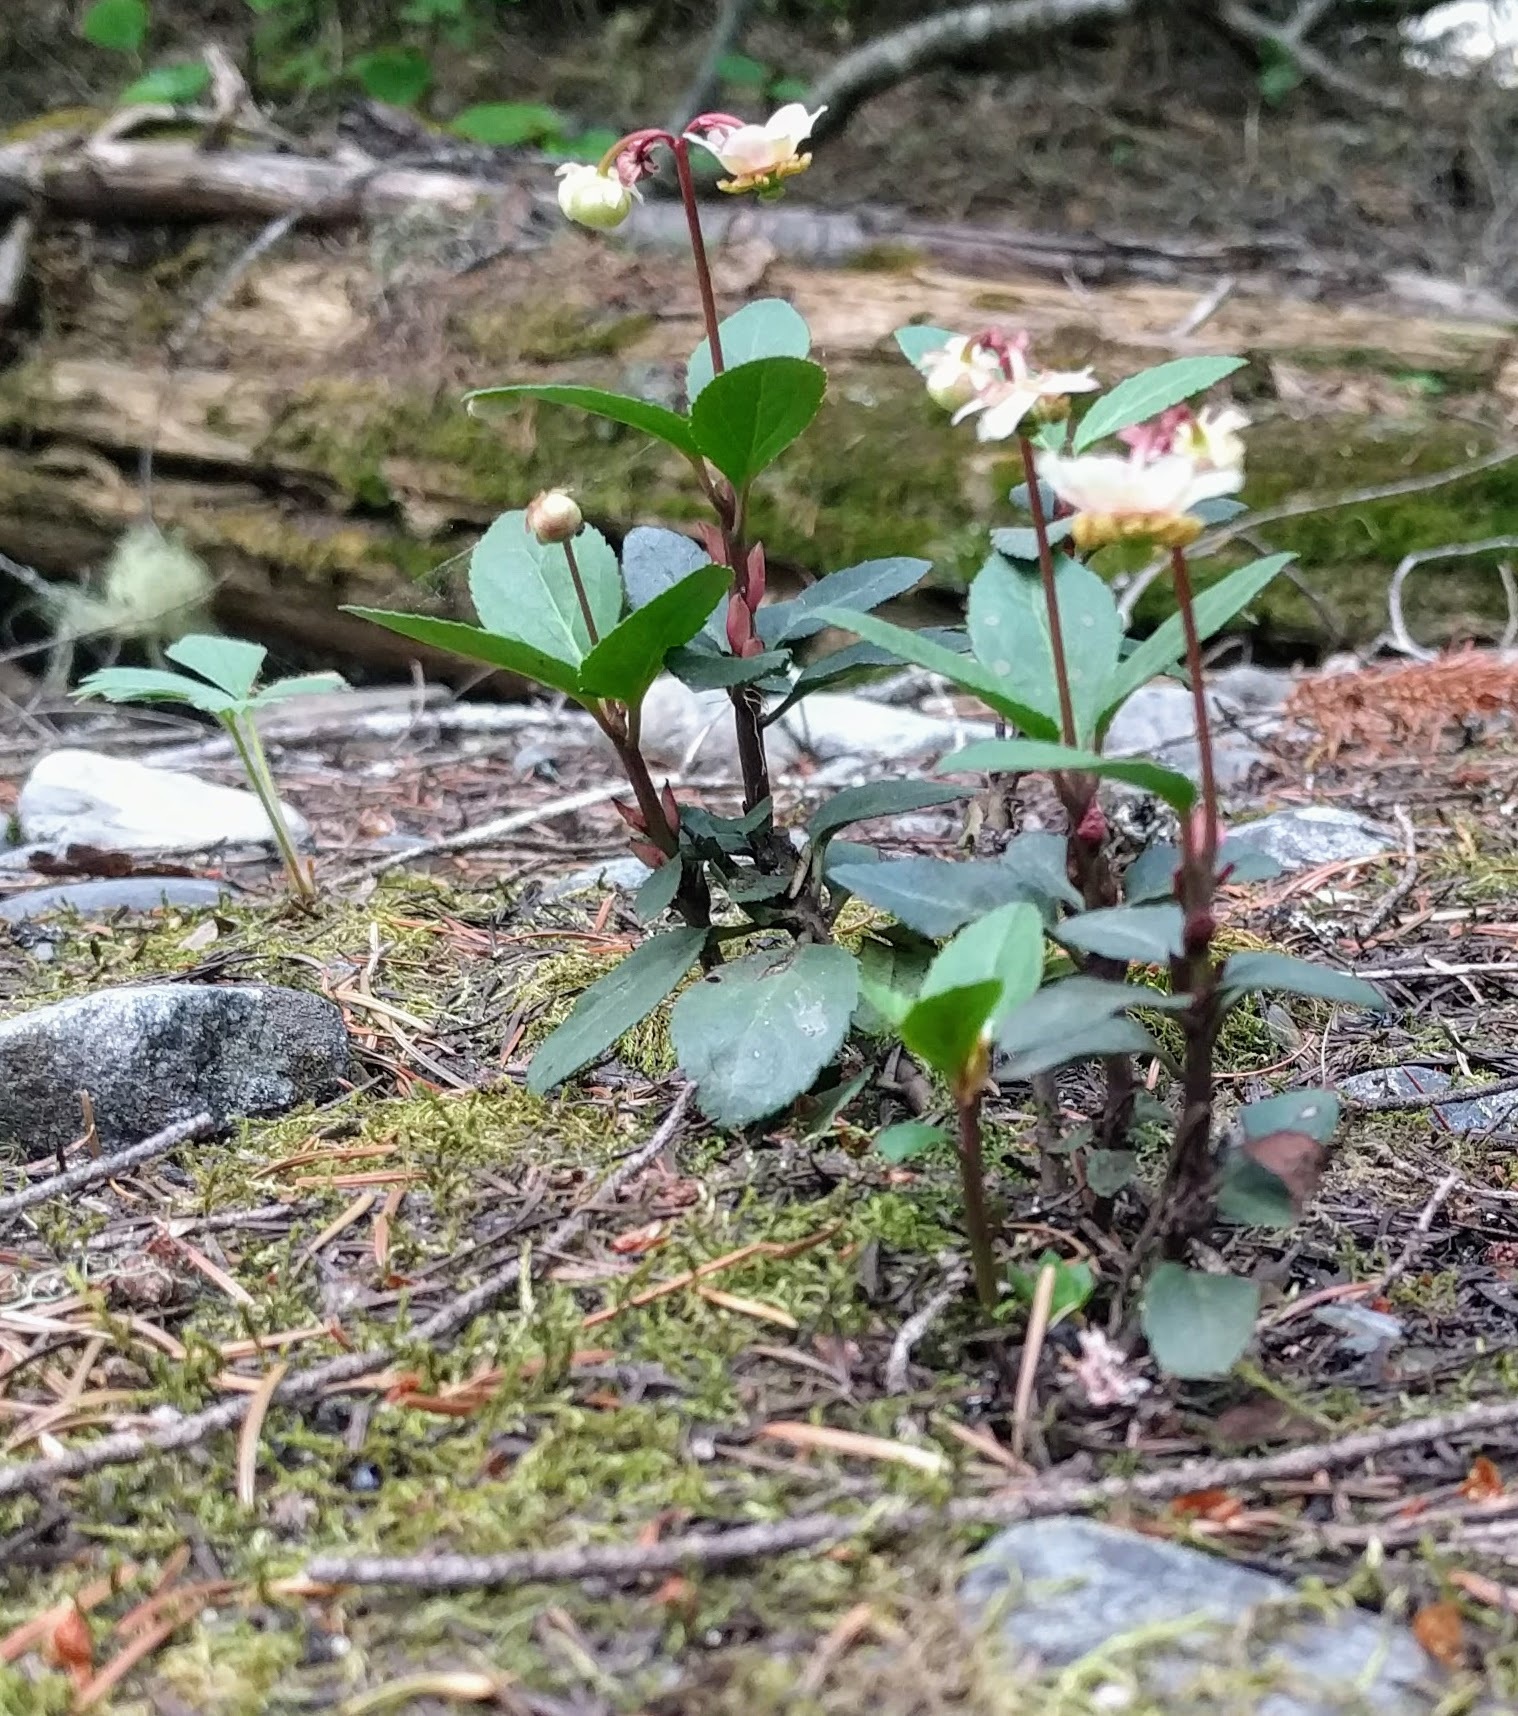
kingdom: Plantae
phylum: Tracheophyta
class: Magnoliopsida
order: Ericales
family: Ericaceae
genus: Chimaphila
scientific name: Chimaphila menziesii
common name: Menzies' pipsissewa
